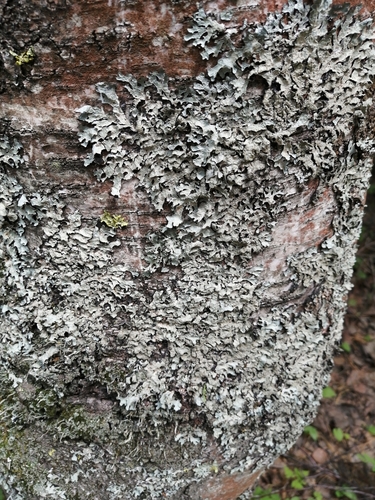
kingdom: Fungi
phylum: Ascomycota
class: Lecanoromycetes
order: Lecanorales
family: Parmeliaceae
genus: Parmelia
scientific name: Parmelia sulcata
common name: Netted shield lichen
